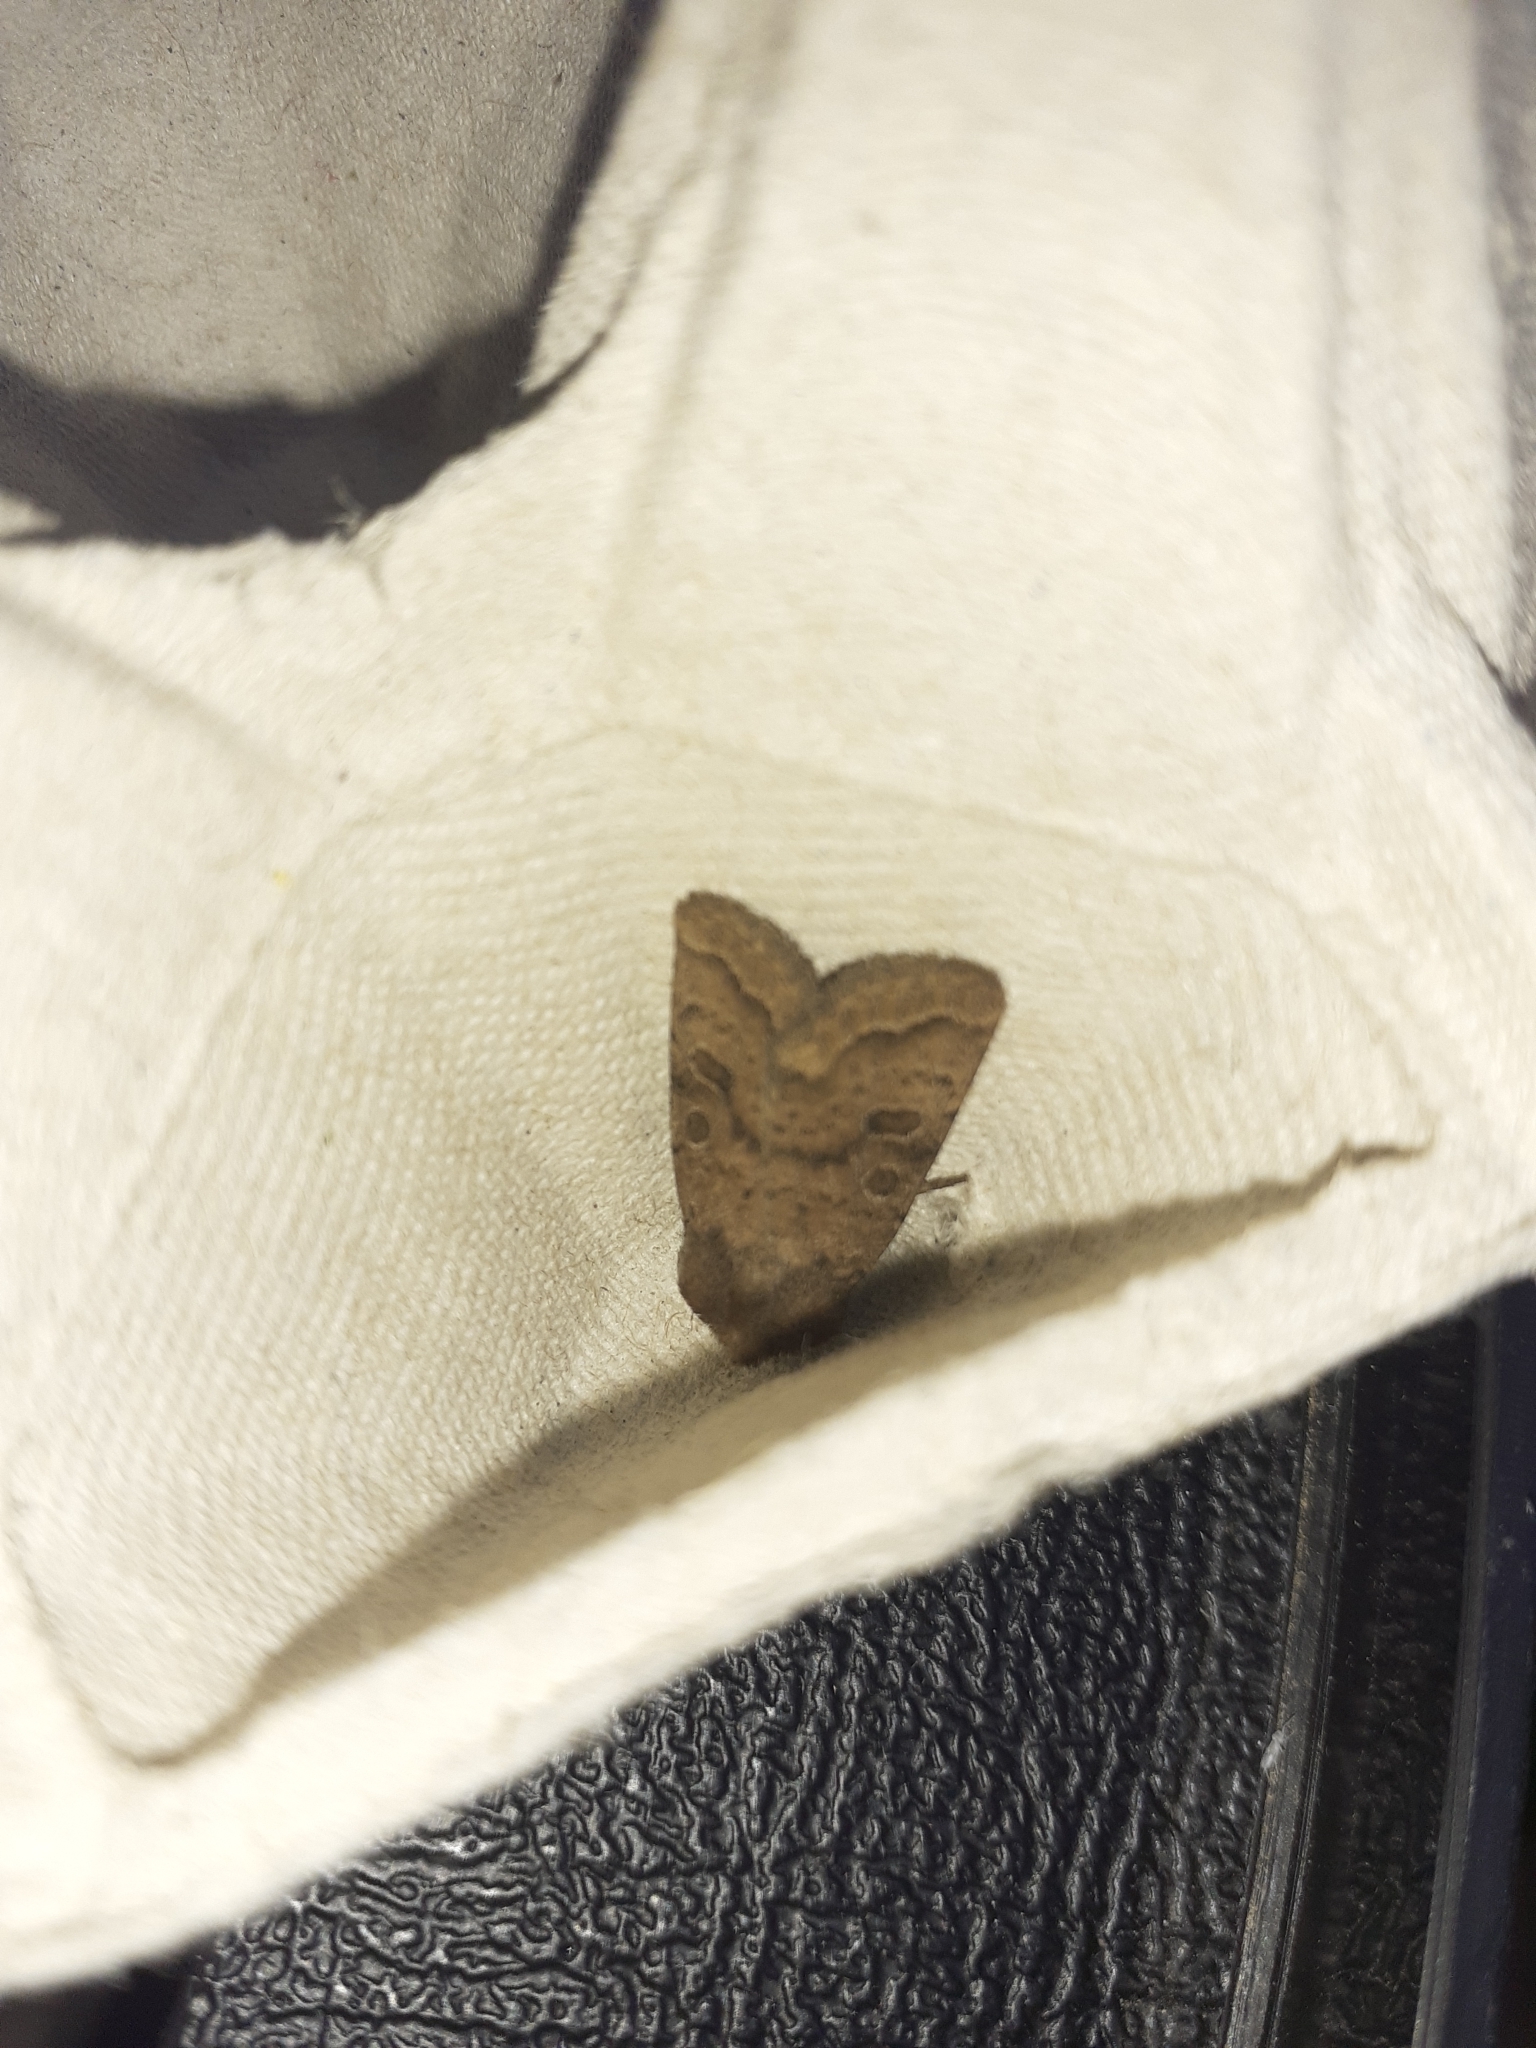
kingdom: Animalia
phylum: Arthropoda
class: Insecta
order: Lepidoptera
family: Noctuidae
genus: Hoplodrina
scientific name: Hoplodrina octogenaria
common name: Uncertain
